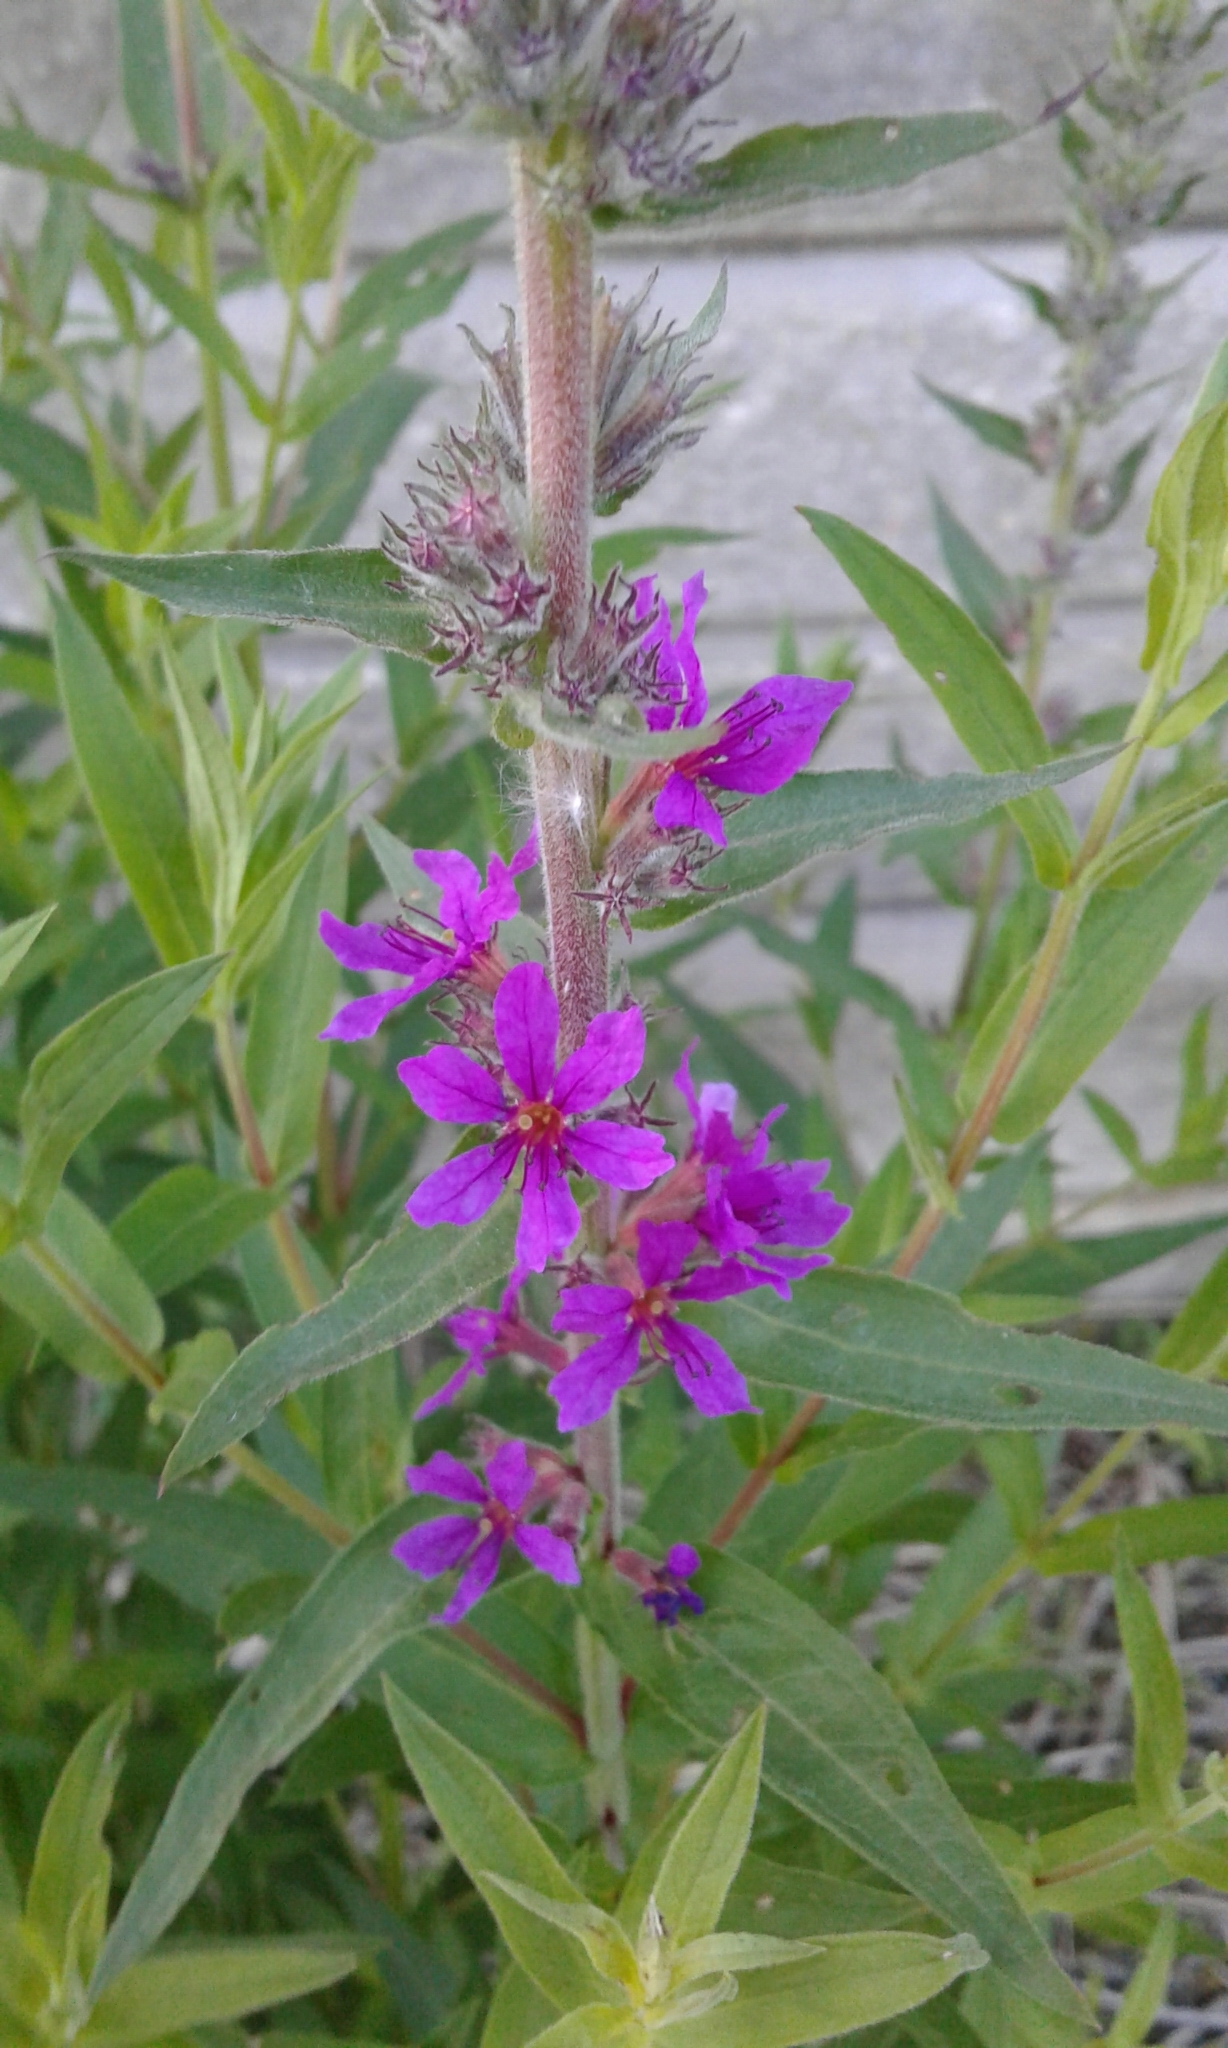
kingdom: Plantae
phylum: Tracheophyta
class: Magnoliopsida
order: Myrtales
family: Lythraceae
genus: Lythrum
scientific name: Lythrum salicaria
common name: Purple loosestrife
